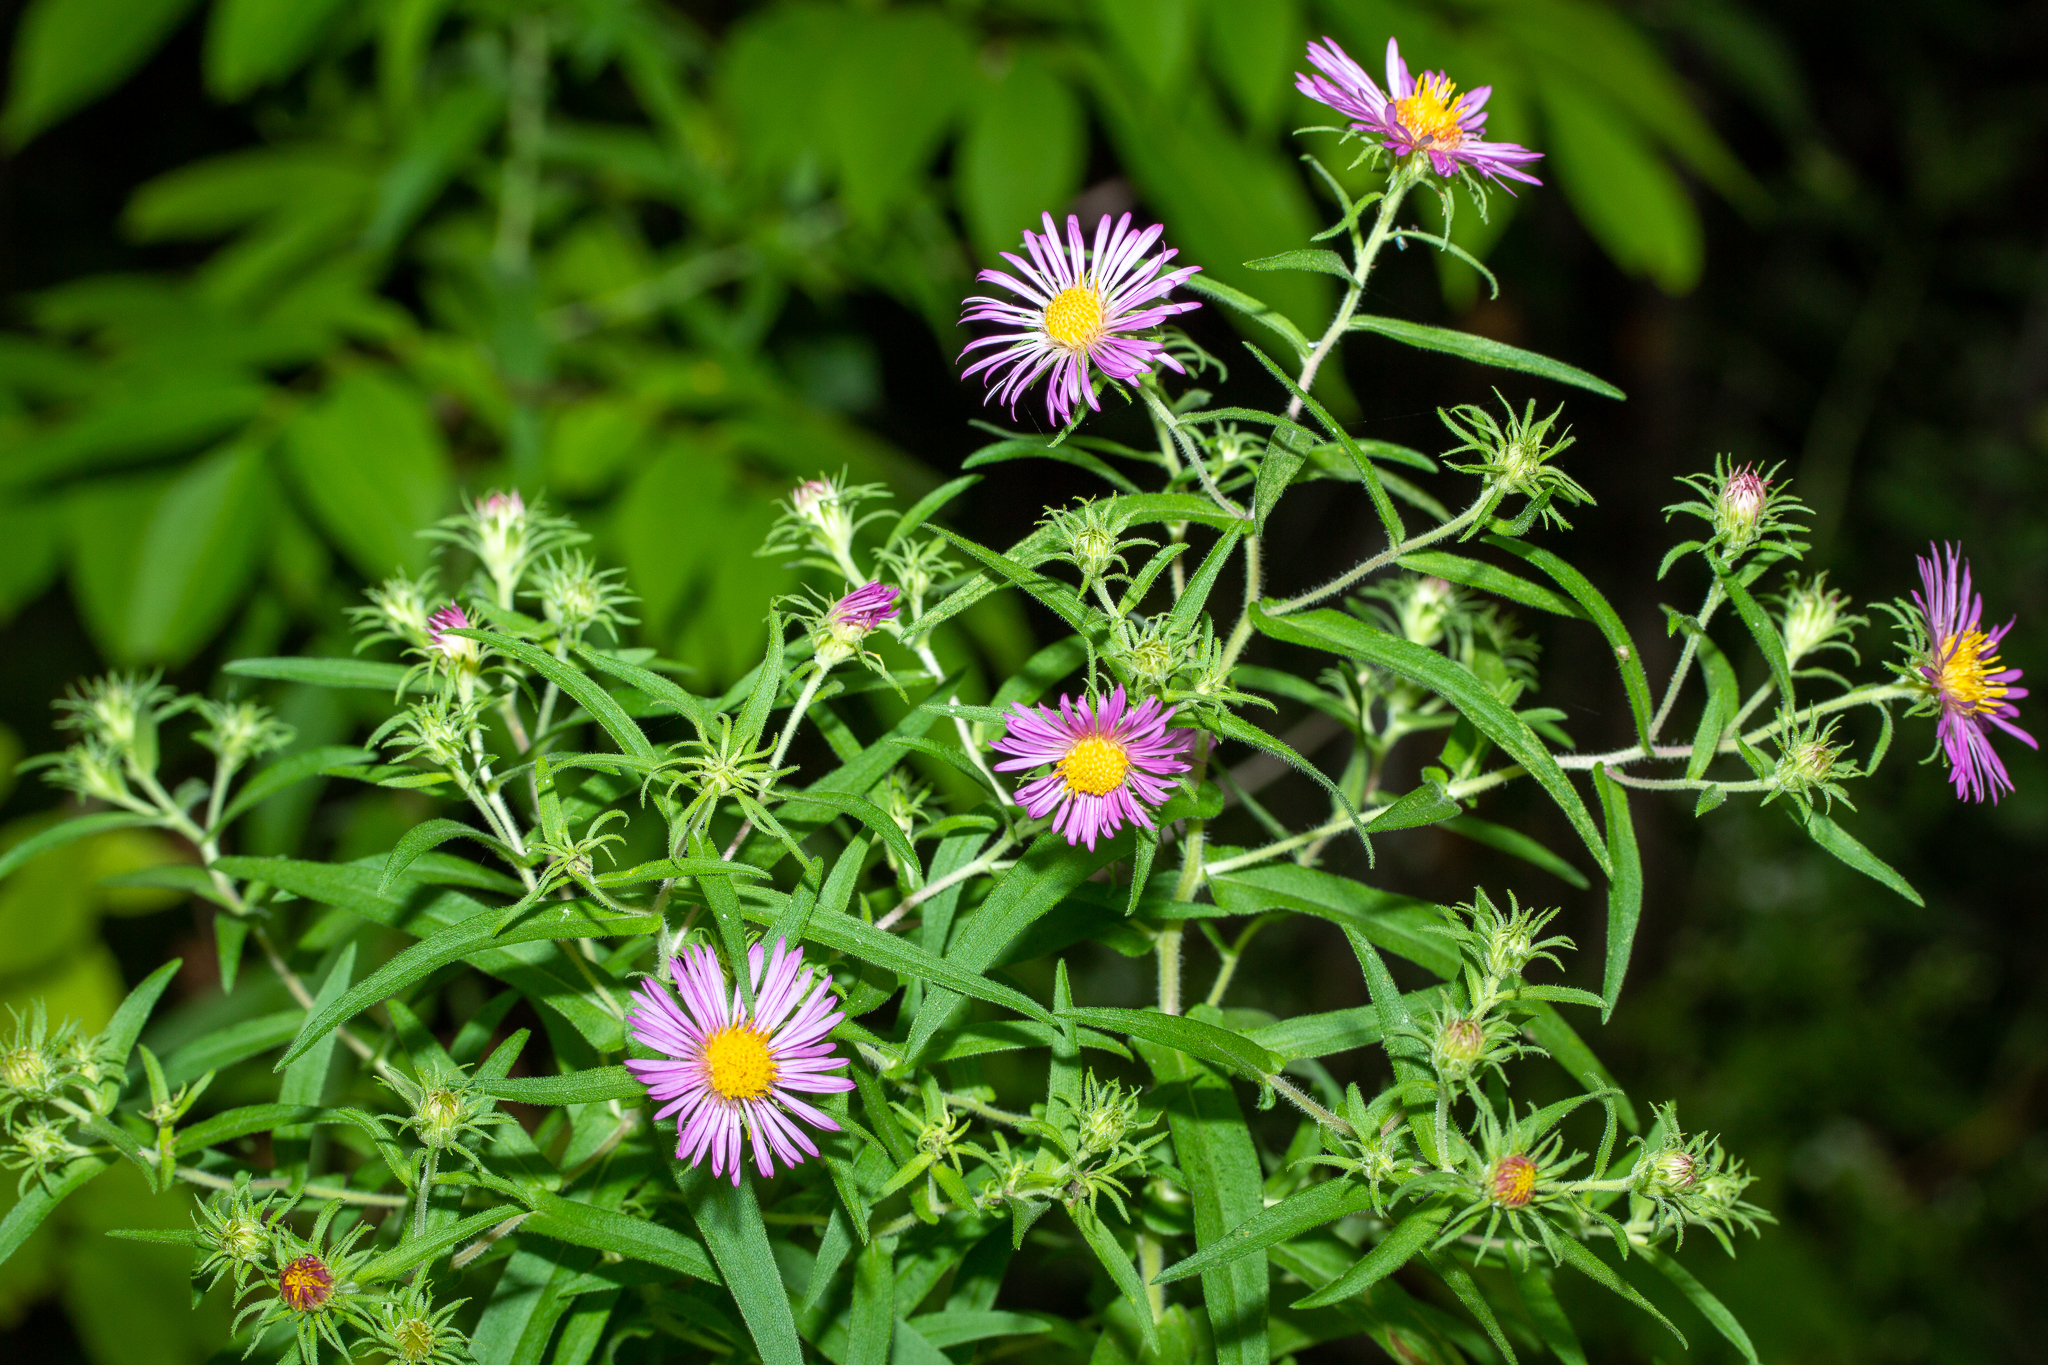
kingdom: Plantae
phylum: Tracheophyta
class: Magnoliopsida
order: Asterales
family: Asteraceae
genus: Symphyotrichum
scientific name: Symphyotrichum novae-angliae
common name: Michaelmas daisy
